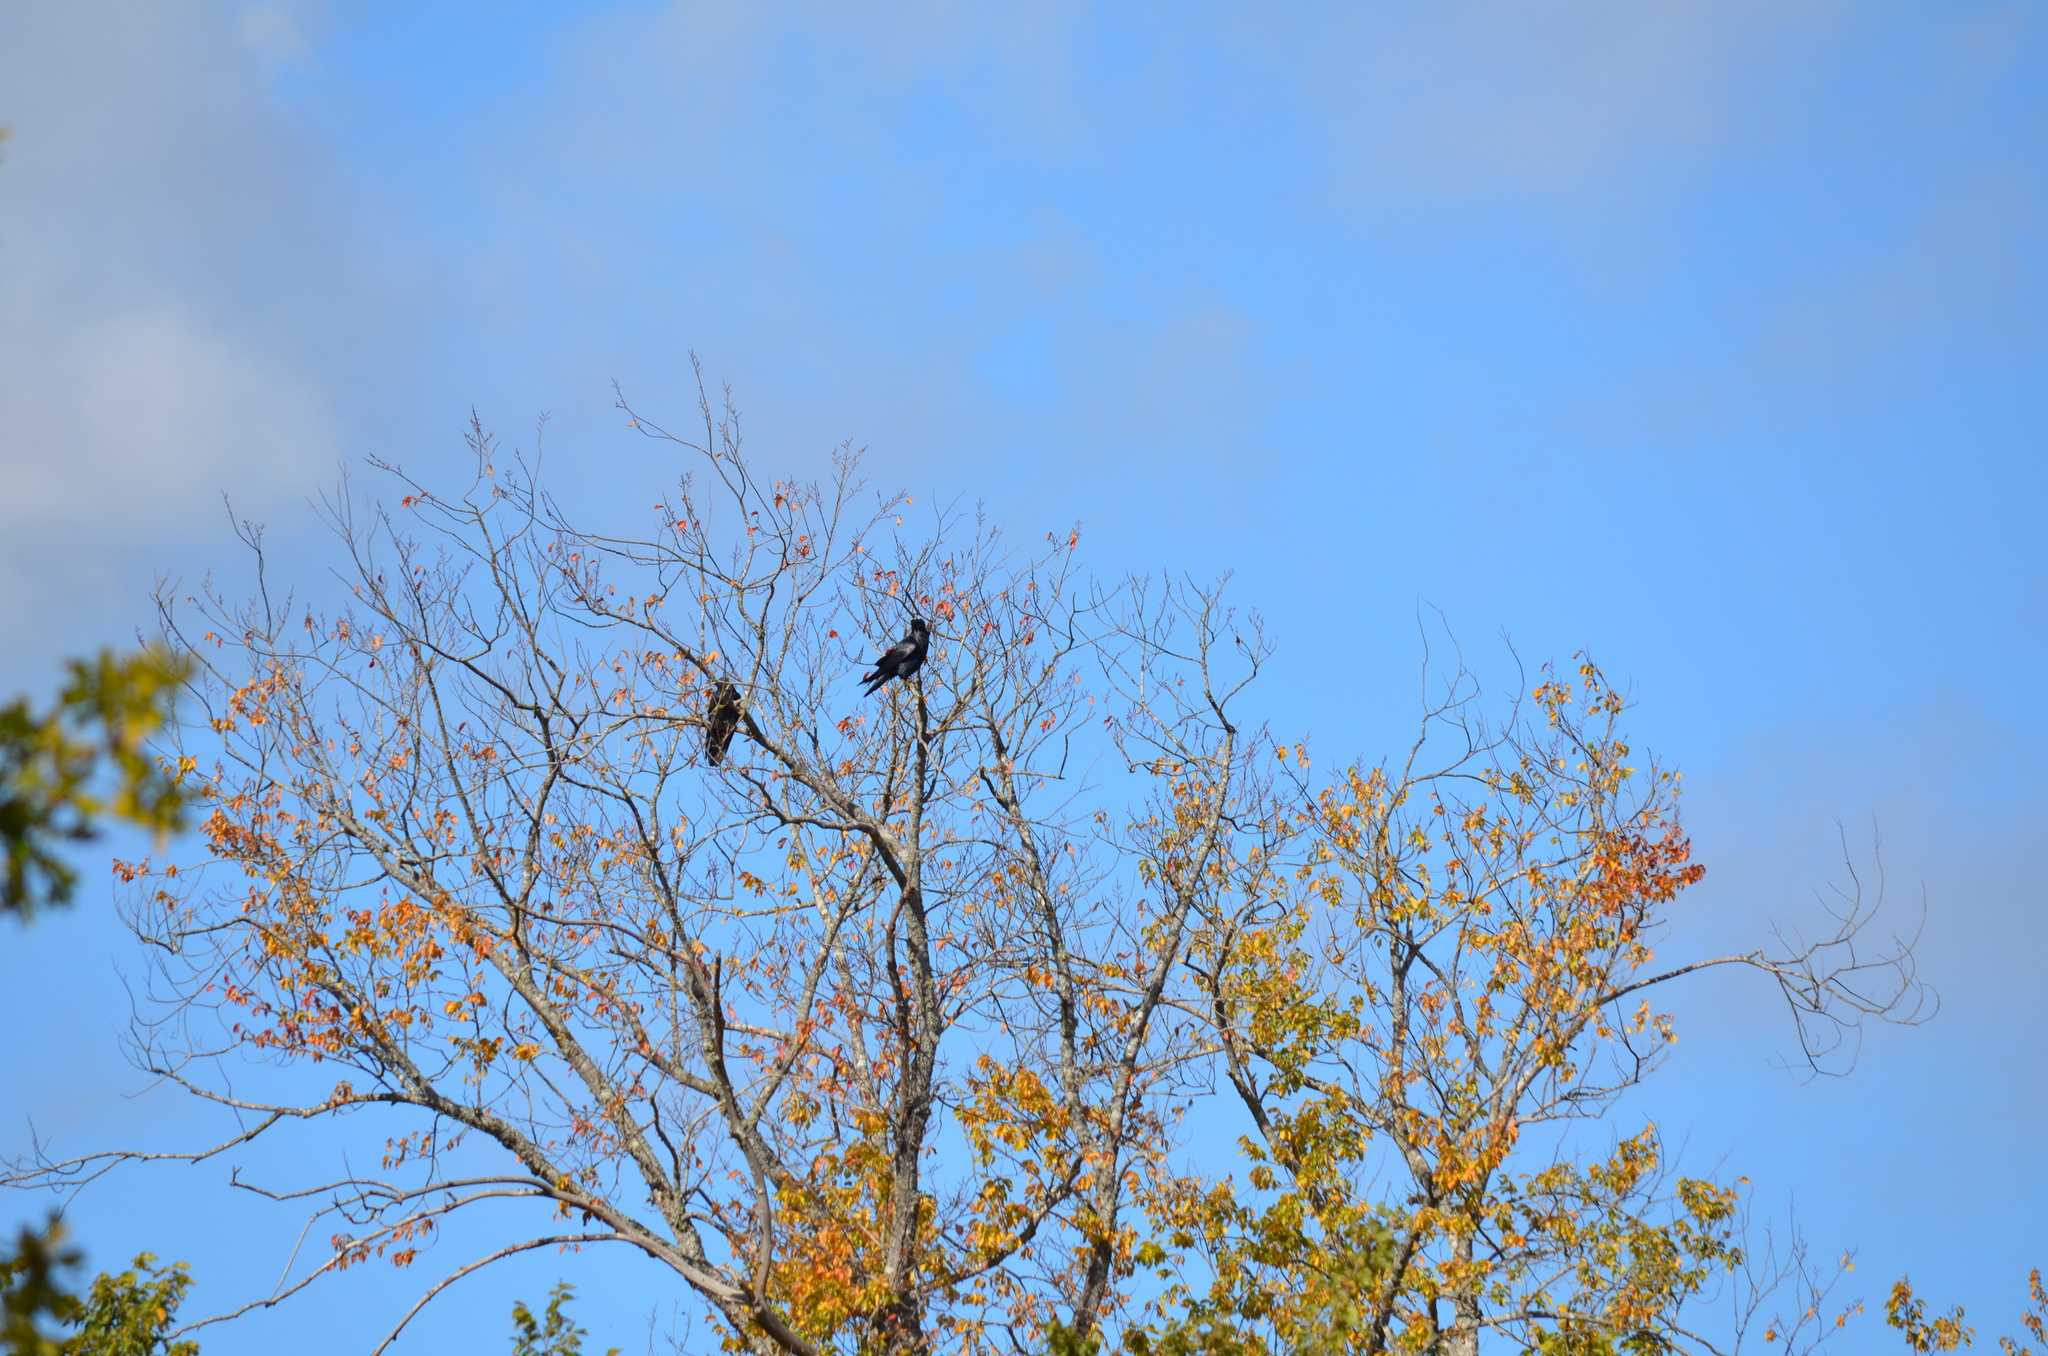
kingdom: Animalia
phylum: Chordata
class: Aves
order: Passeriformes
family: Corvidae
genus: Corvus
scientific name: Corvus corax
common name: Common raven
